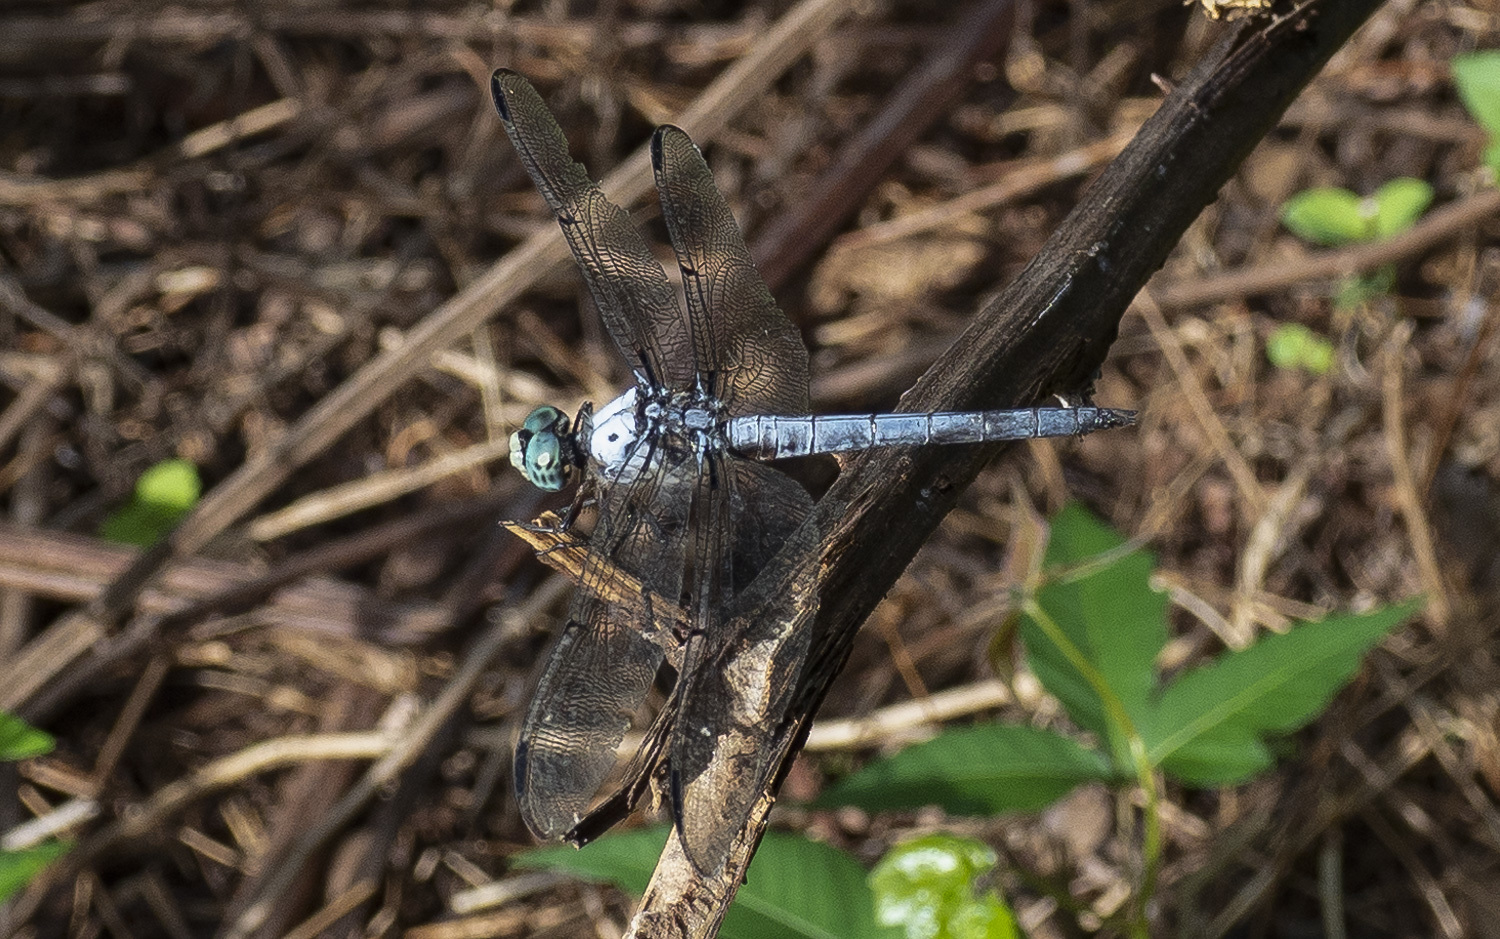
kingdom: Animalia
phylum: Arthropoda
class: Insecta
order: Odonata
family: Libellulidae
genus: Libellula
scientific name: Libellula vibrans
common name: Great blue skimmer
